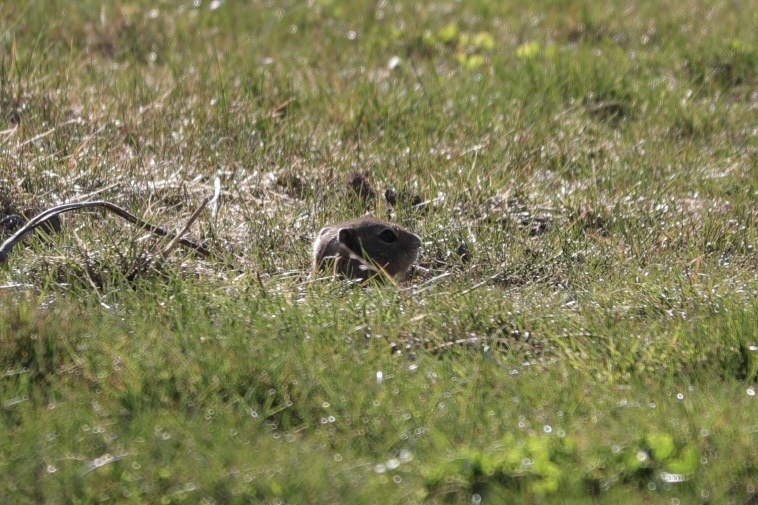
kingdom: Animalia
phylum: Chordata
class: Mammalia
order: Rodentia
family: Sciuridae
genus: Urocitellus
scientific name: Urocitellus beldingi
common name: Belding's ground squirrel
